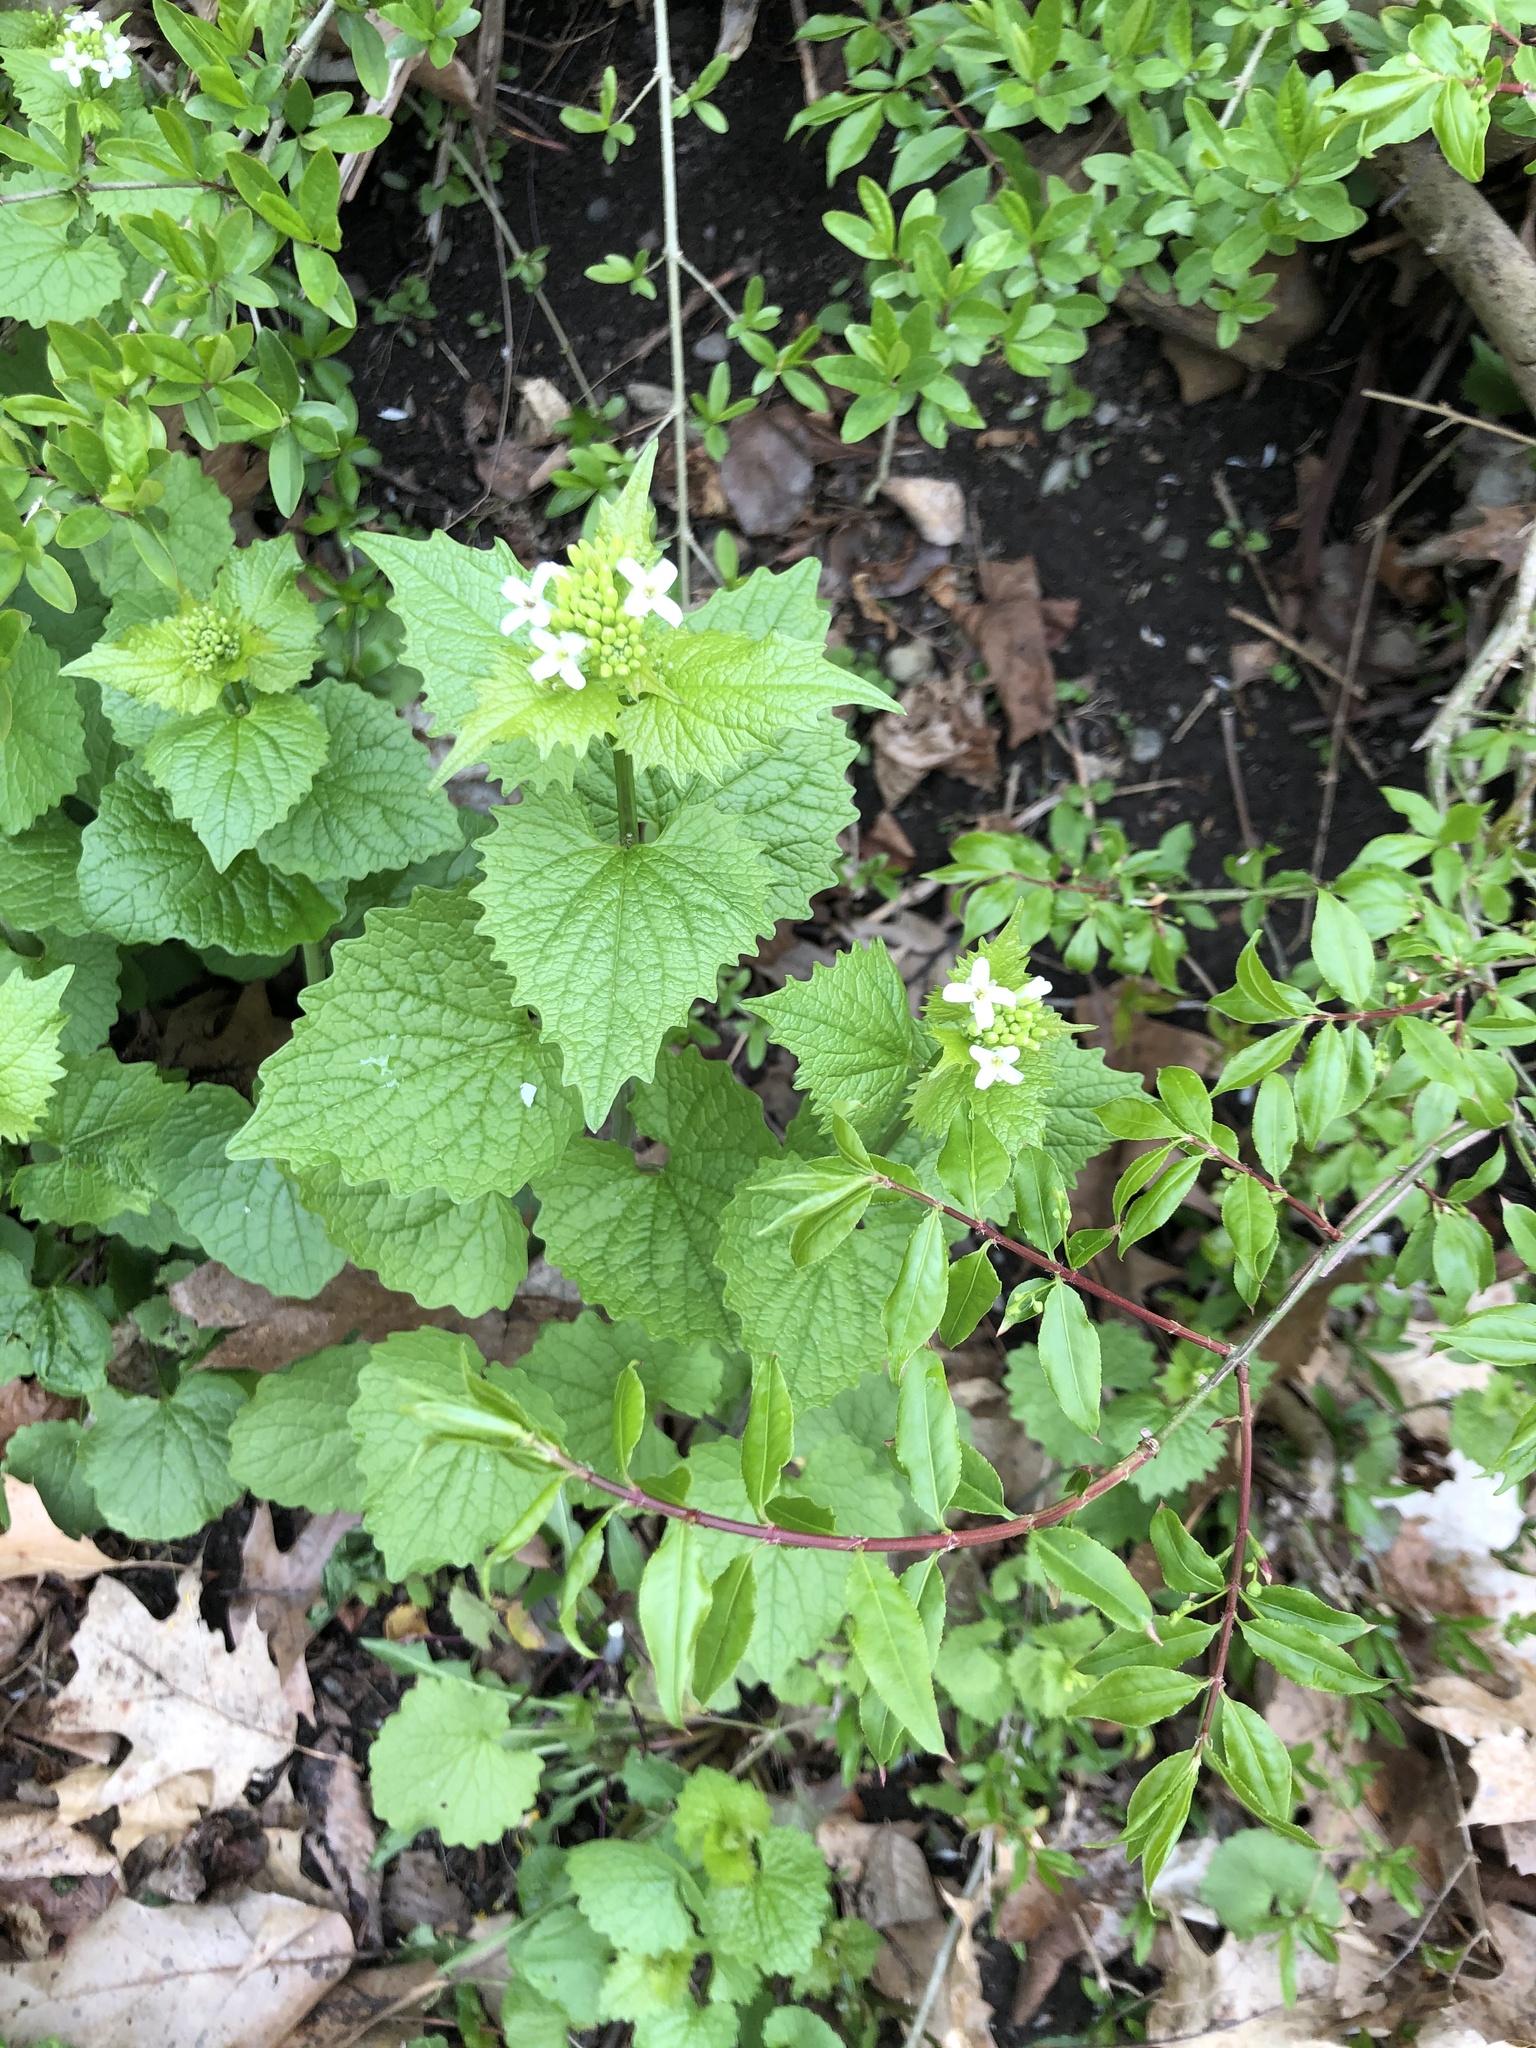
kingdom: Plantae
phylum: Tracheophyta
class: Magnoliopsida
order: Brassicales
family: Brassicaceae
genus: Alliaria
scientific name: Alliaria petiolata
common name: Garlic mustard
